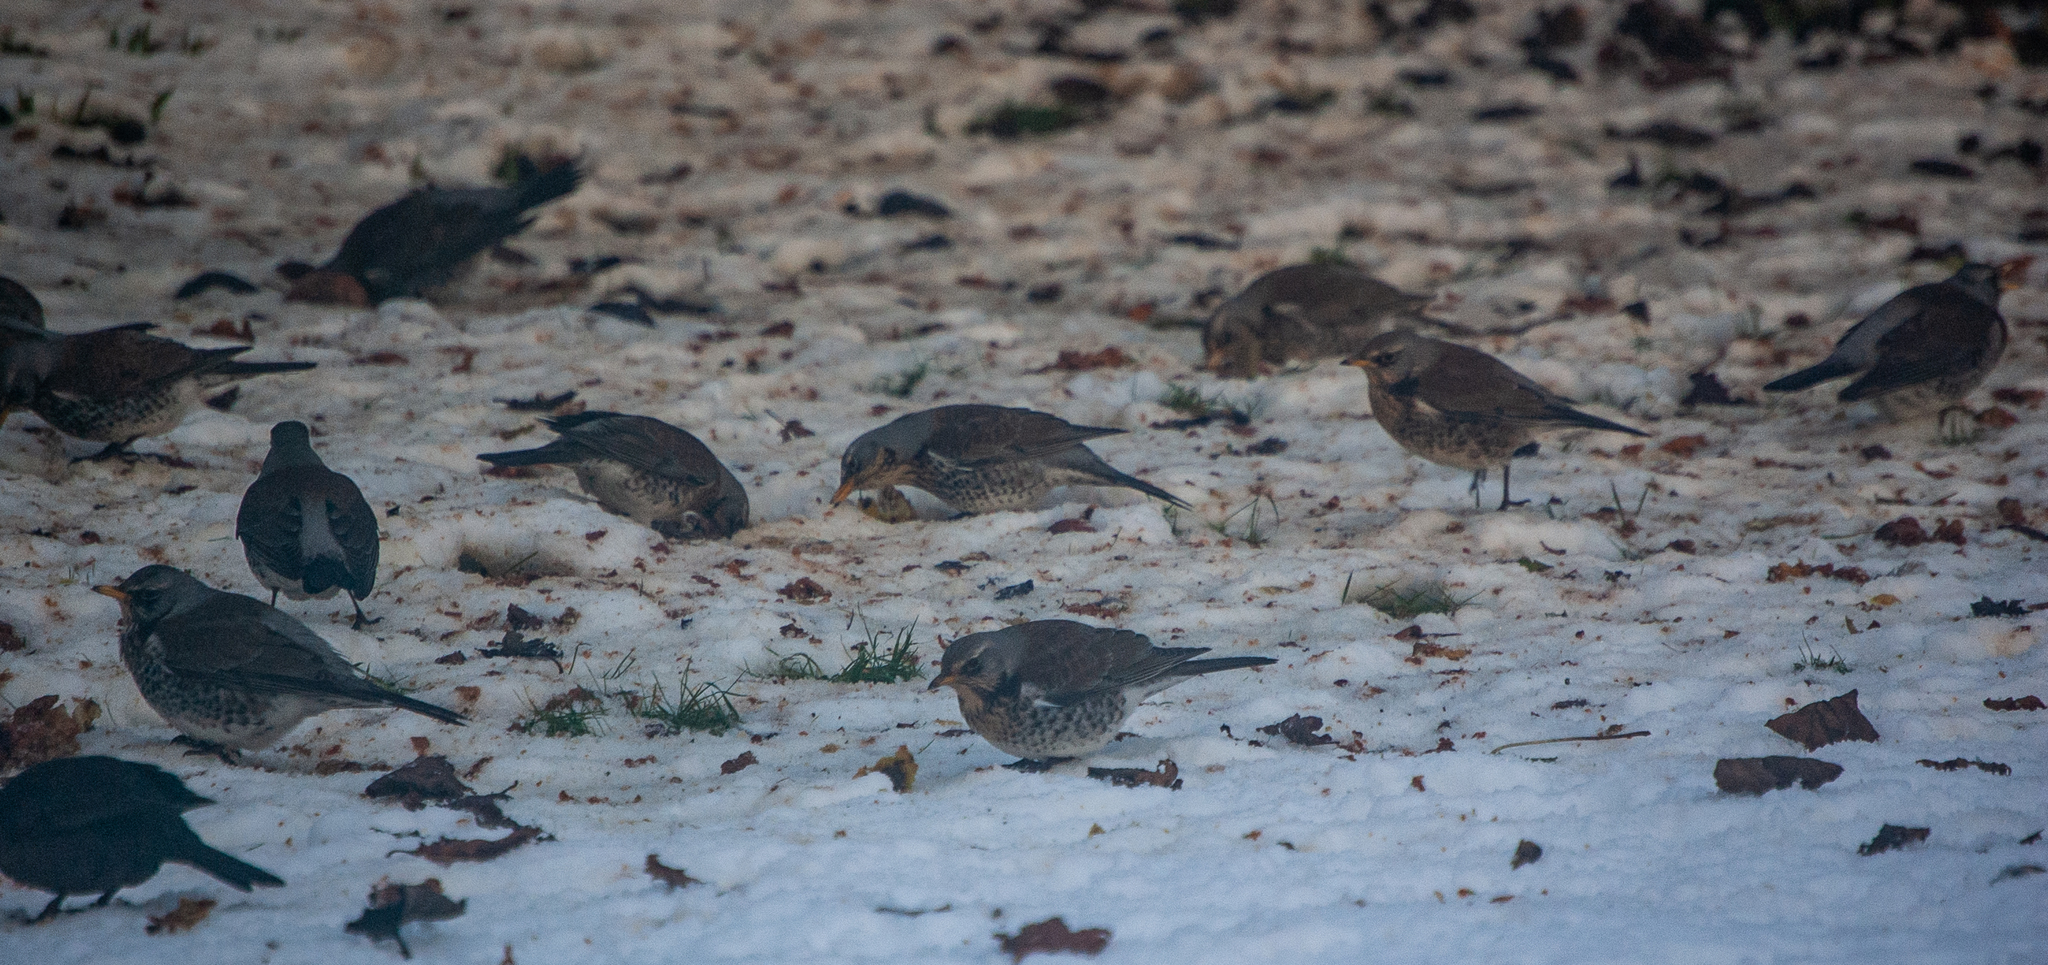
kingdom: Animalia
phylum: Chordata
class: Aves
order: Passeriformes
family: Turdidae
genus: Turdus
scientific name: Turdus pilaris
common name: Fieldfare
